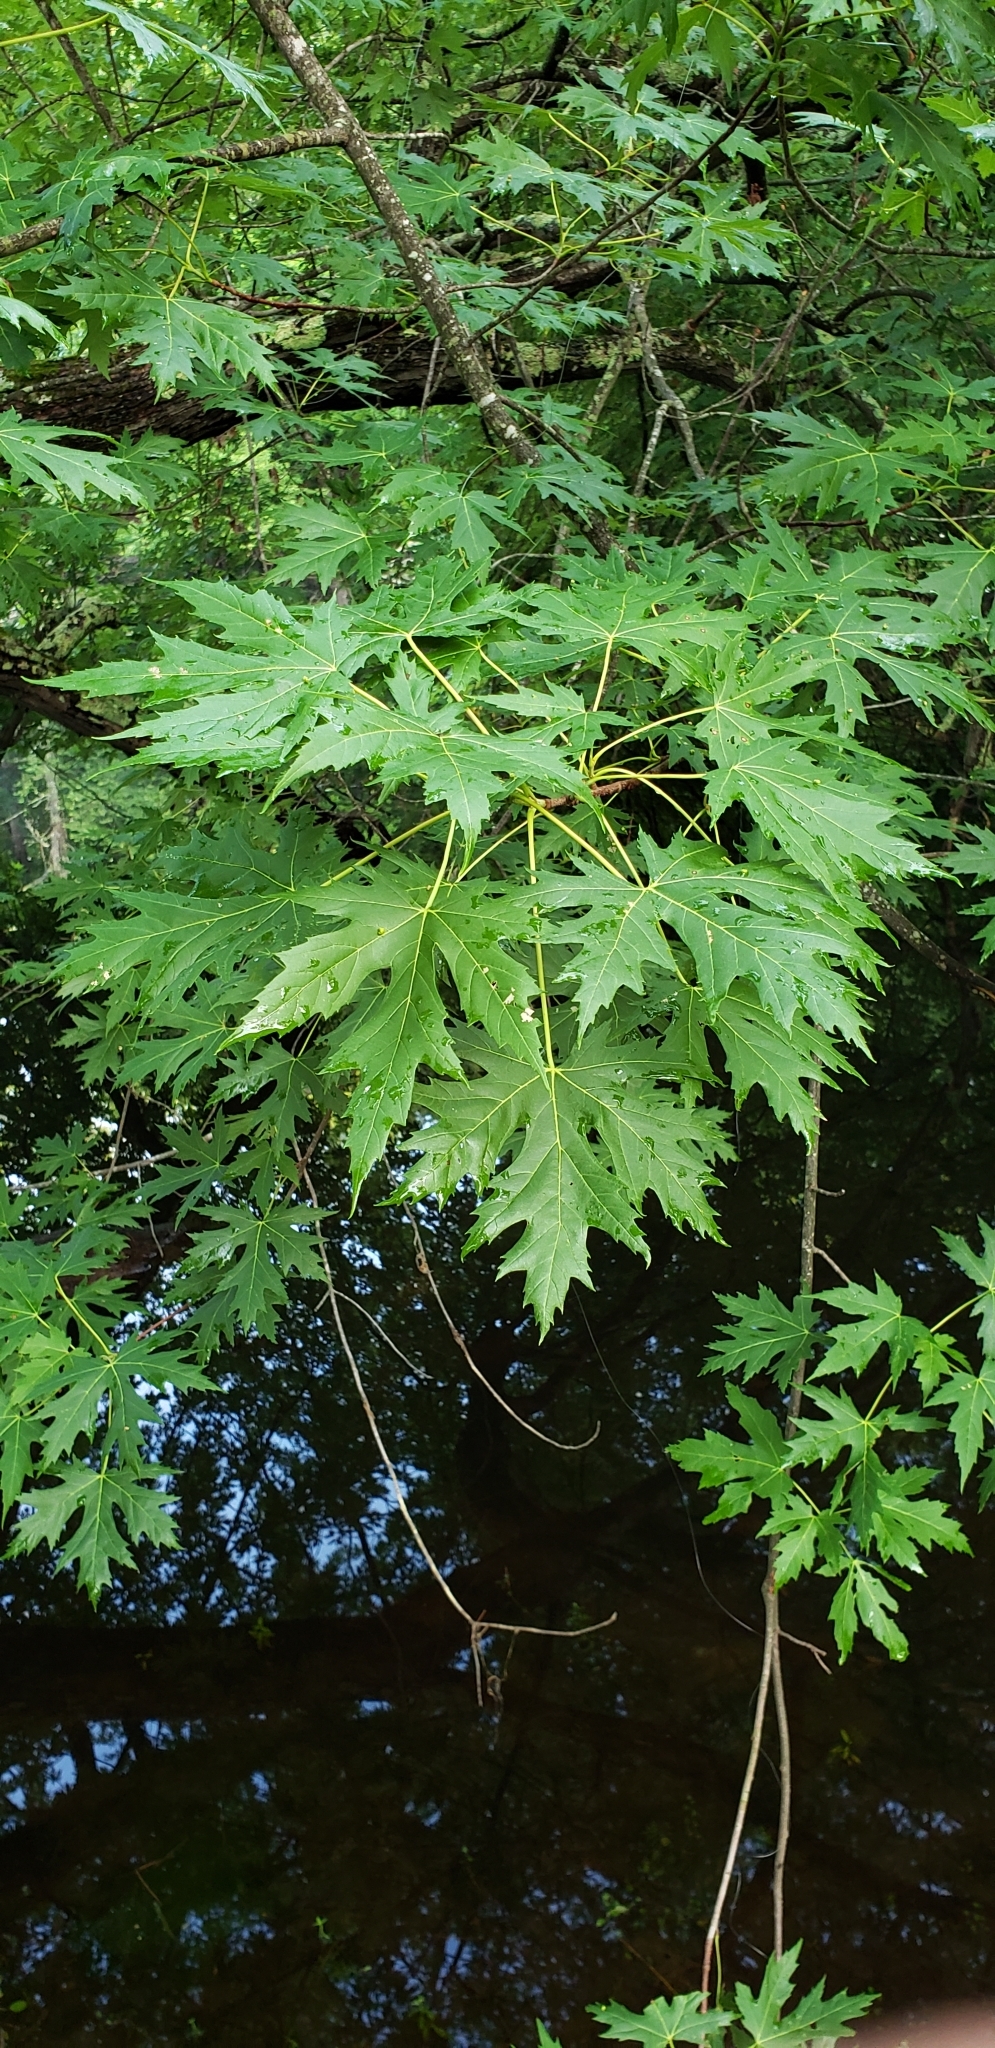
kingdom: Plantae
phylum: Tracheophyta
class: Magnoliopsida
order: Sapindales
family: Sapindaceae
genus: Acer
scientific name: Acer saccharinum
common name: Silver maple
